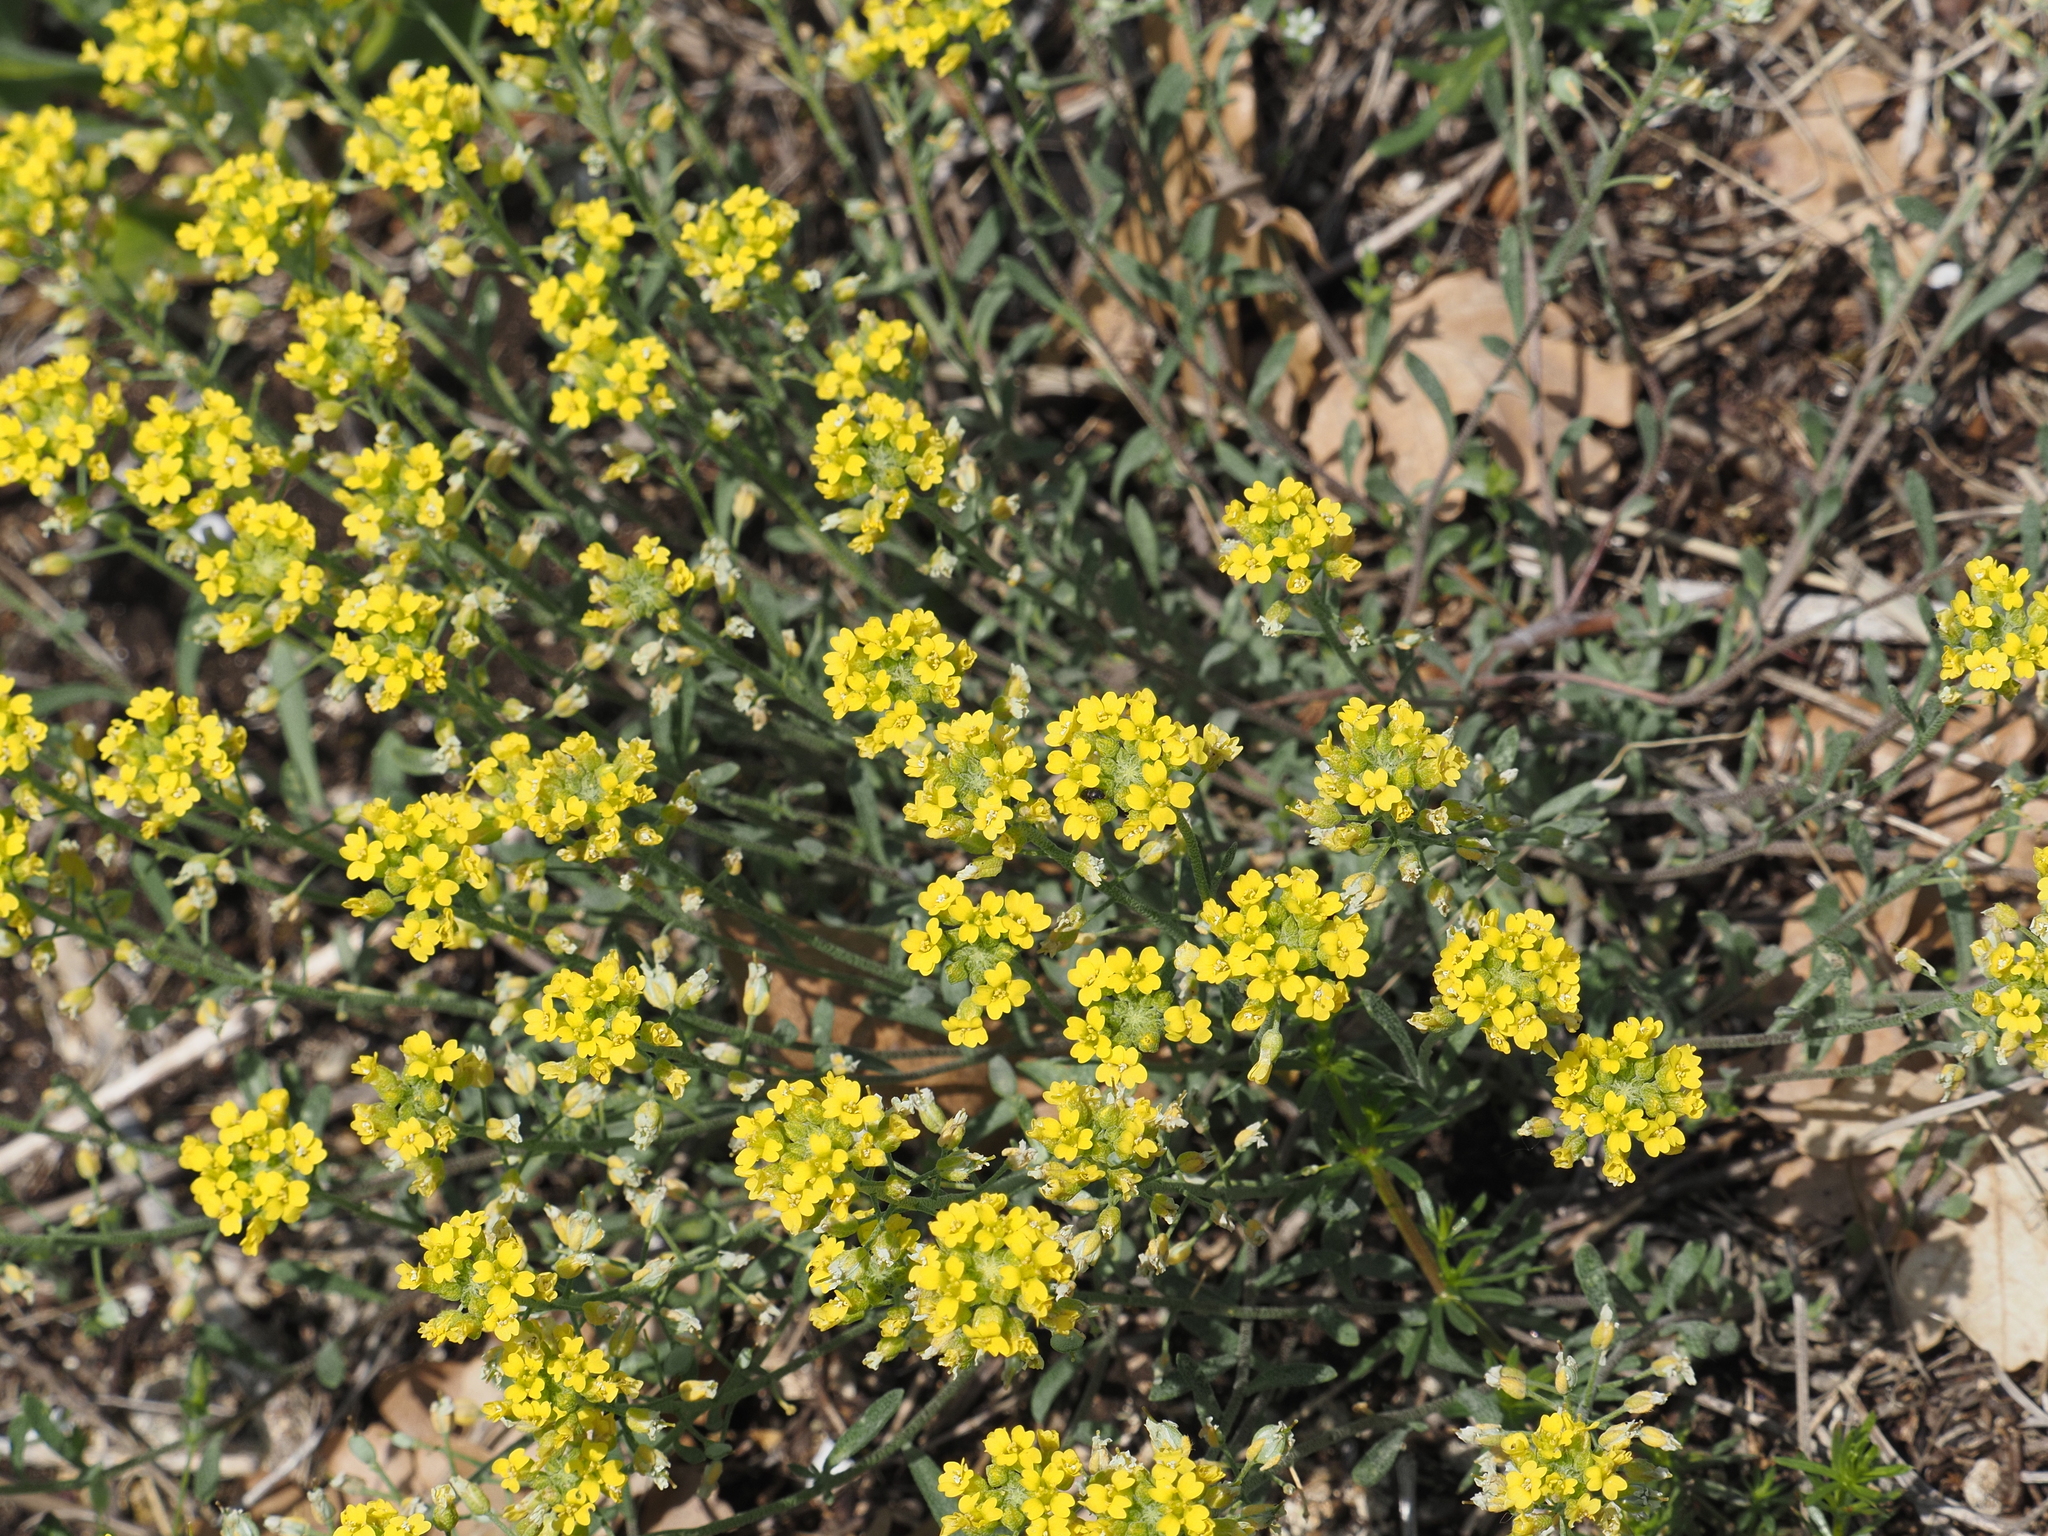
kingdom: Plantae
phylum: Tracheophyta
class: Magnoliopsida
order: Brassicales
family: Brassicaceae
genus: Alyssum
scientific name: Alyssum gmelinii
